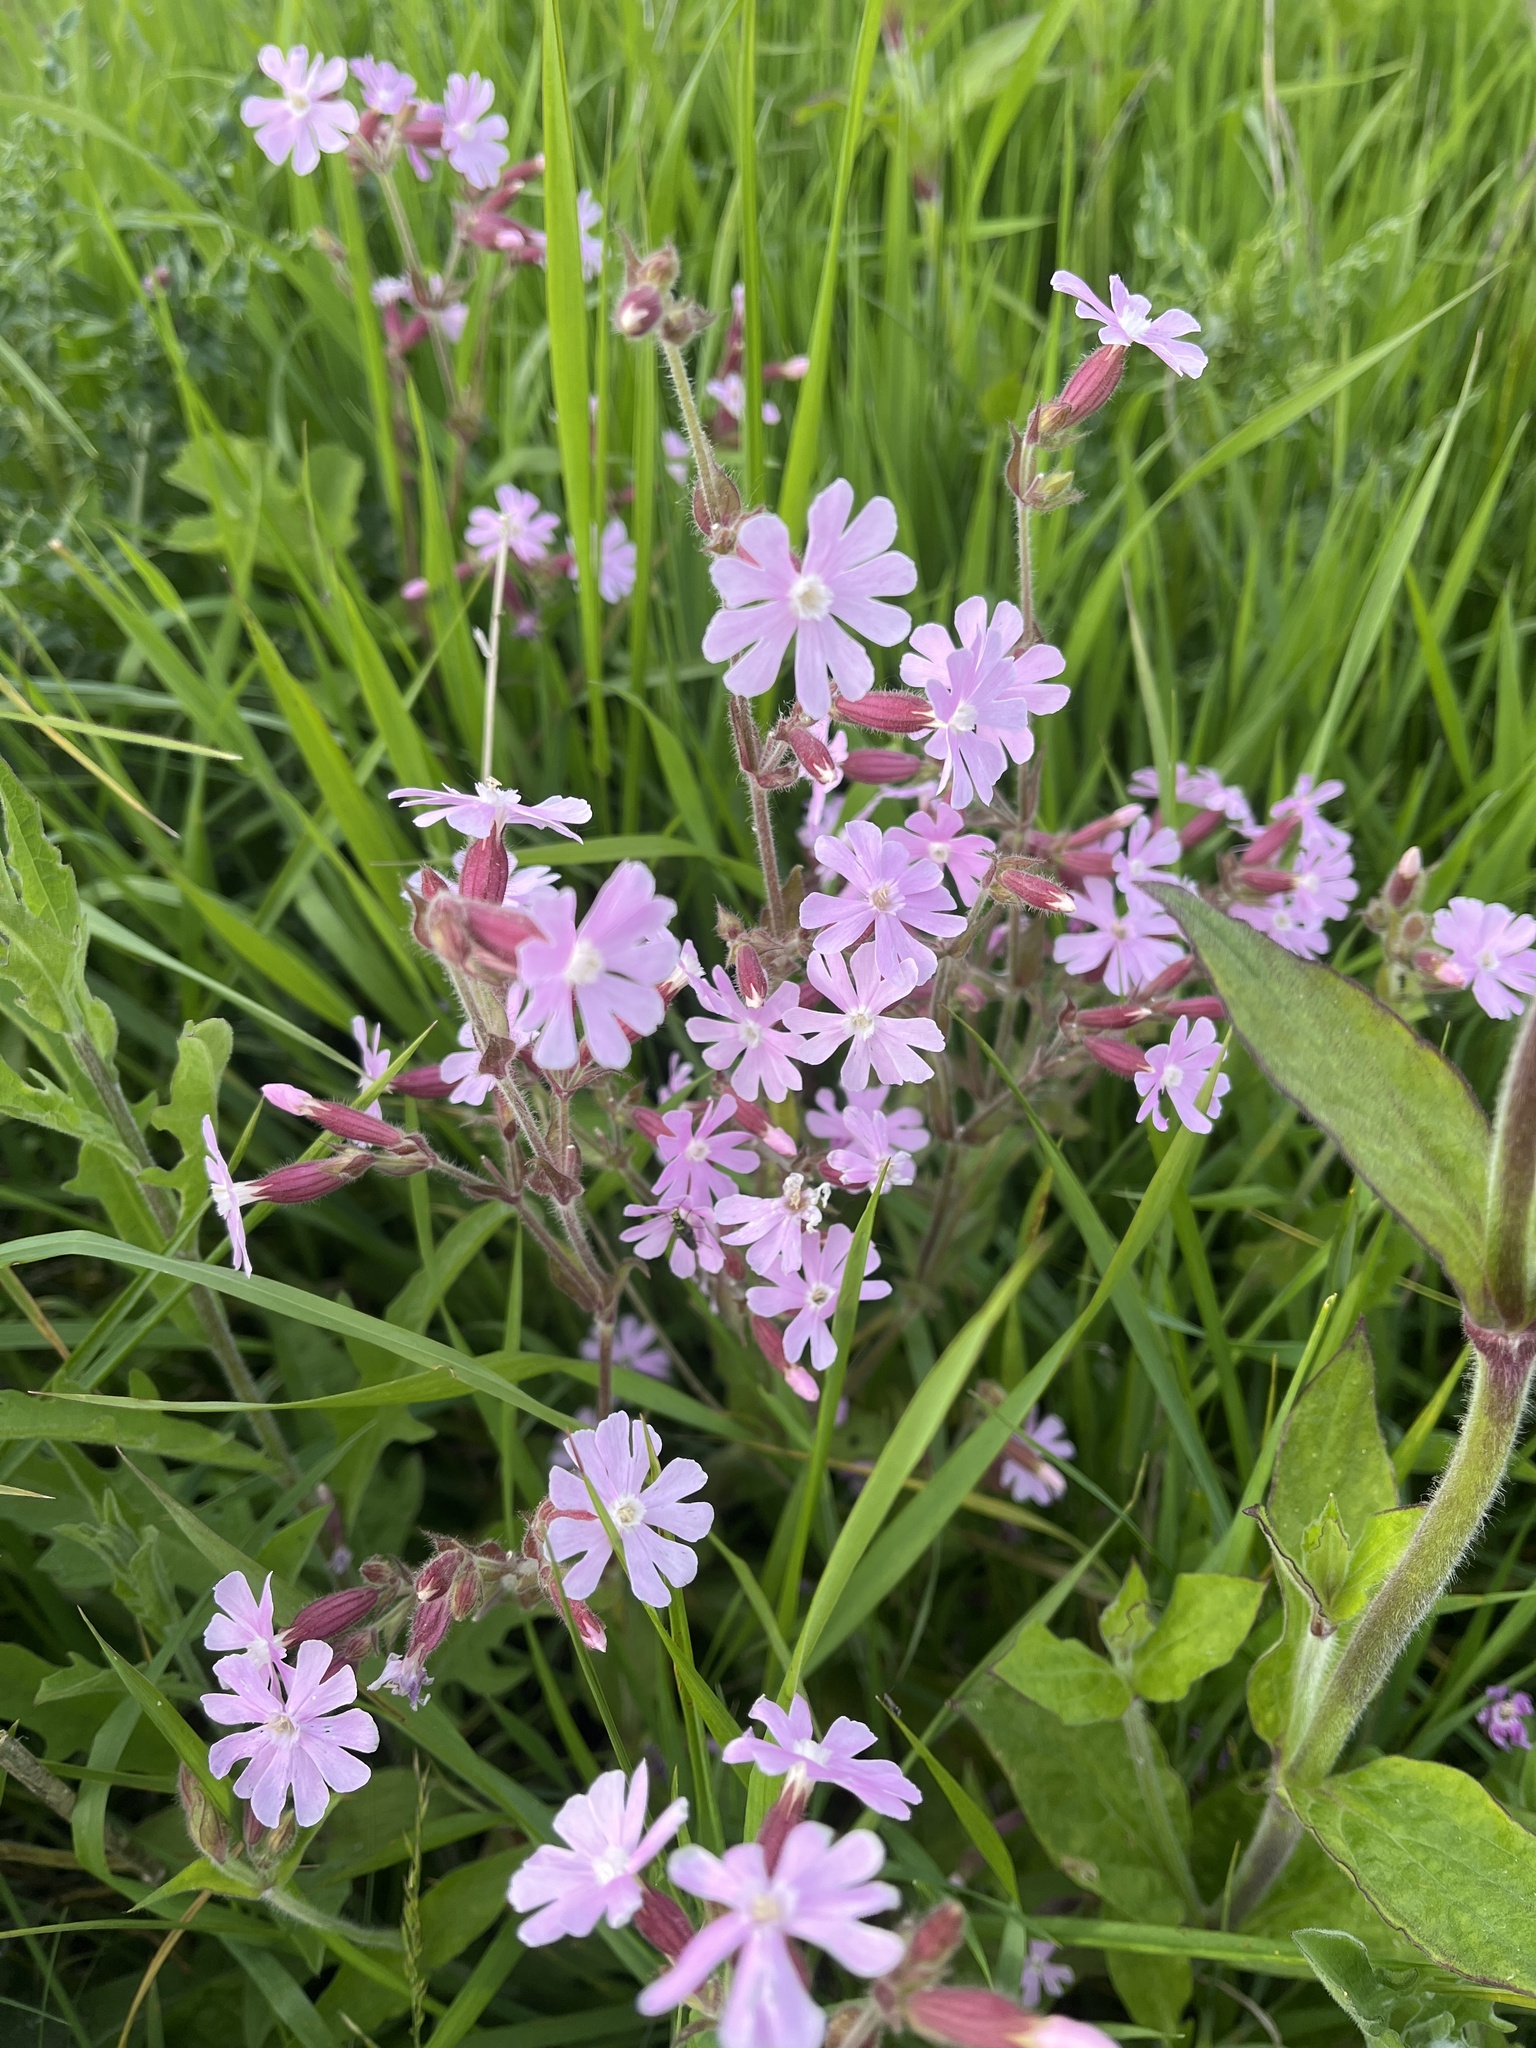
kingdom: Plantae
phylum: Tracheophyta
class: Magnoliopsida
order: Caryophyllales
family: Caryophyllaceae
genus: Silene
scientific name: Silene dioica
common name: Red campion
